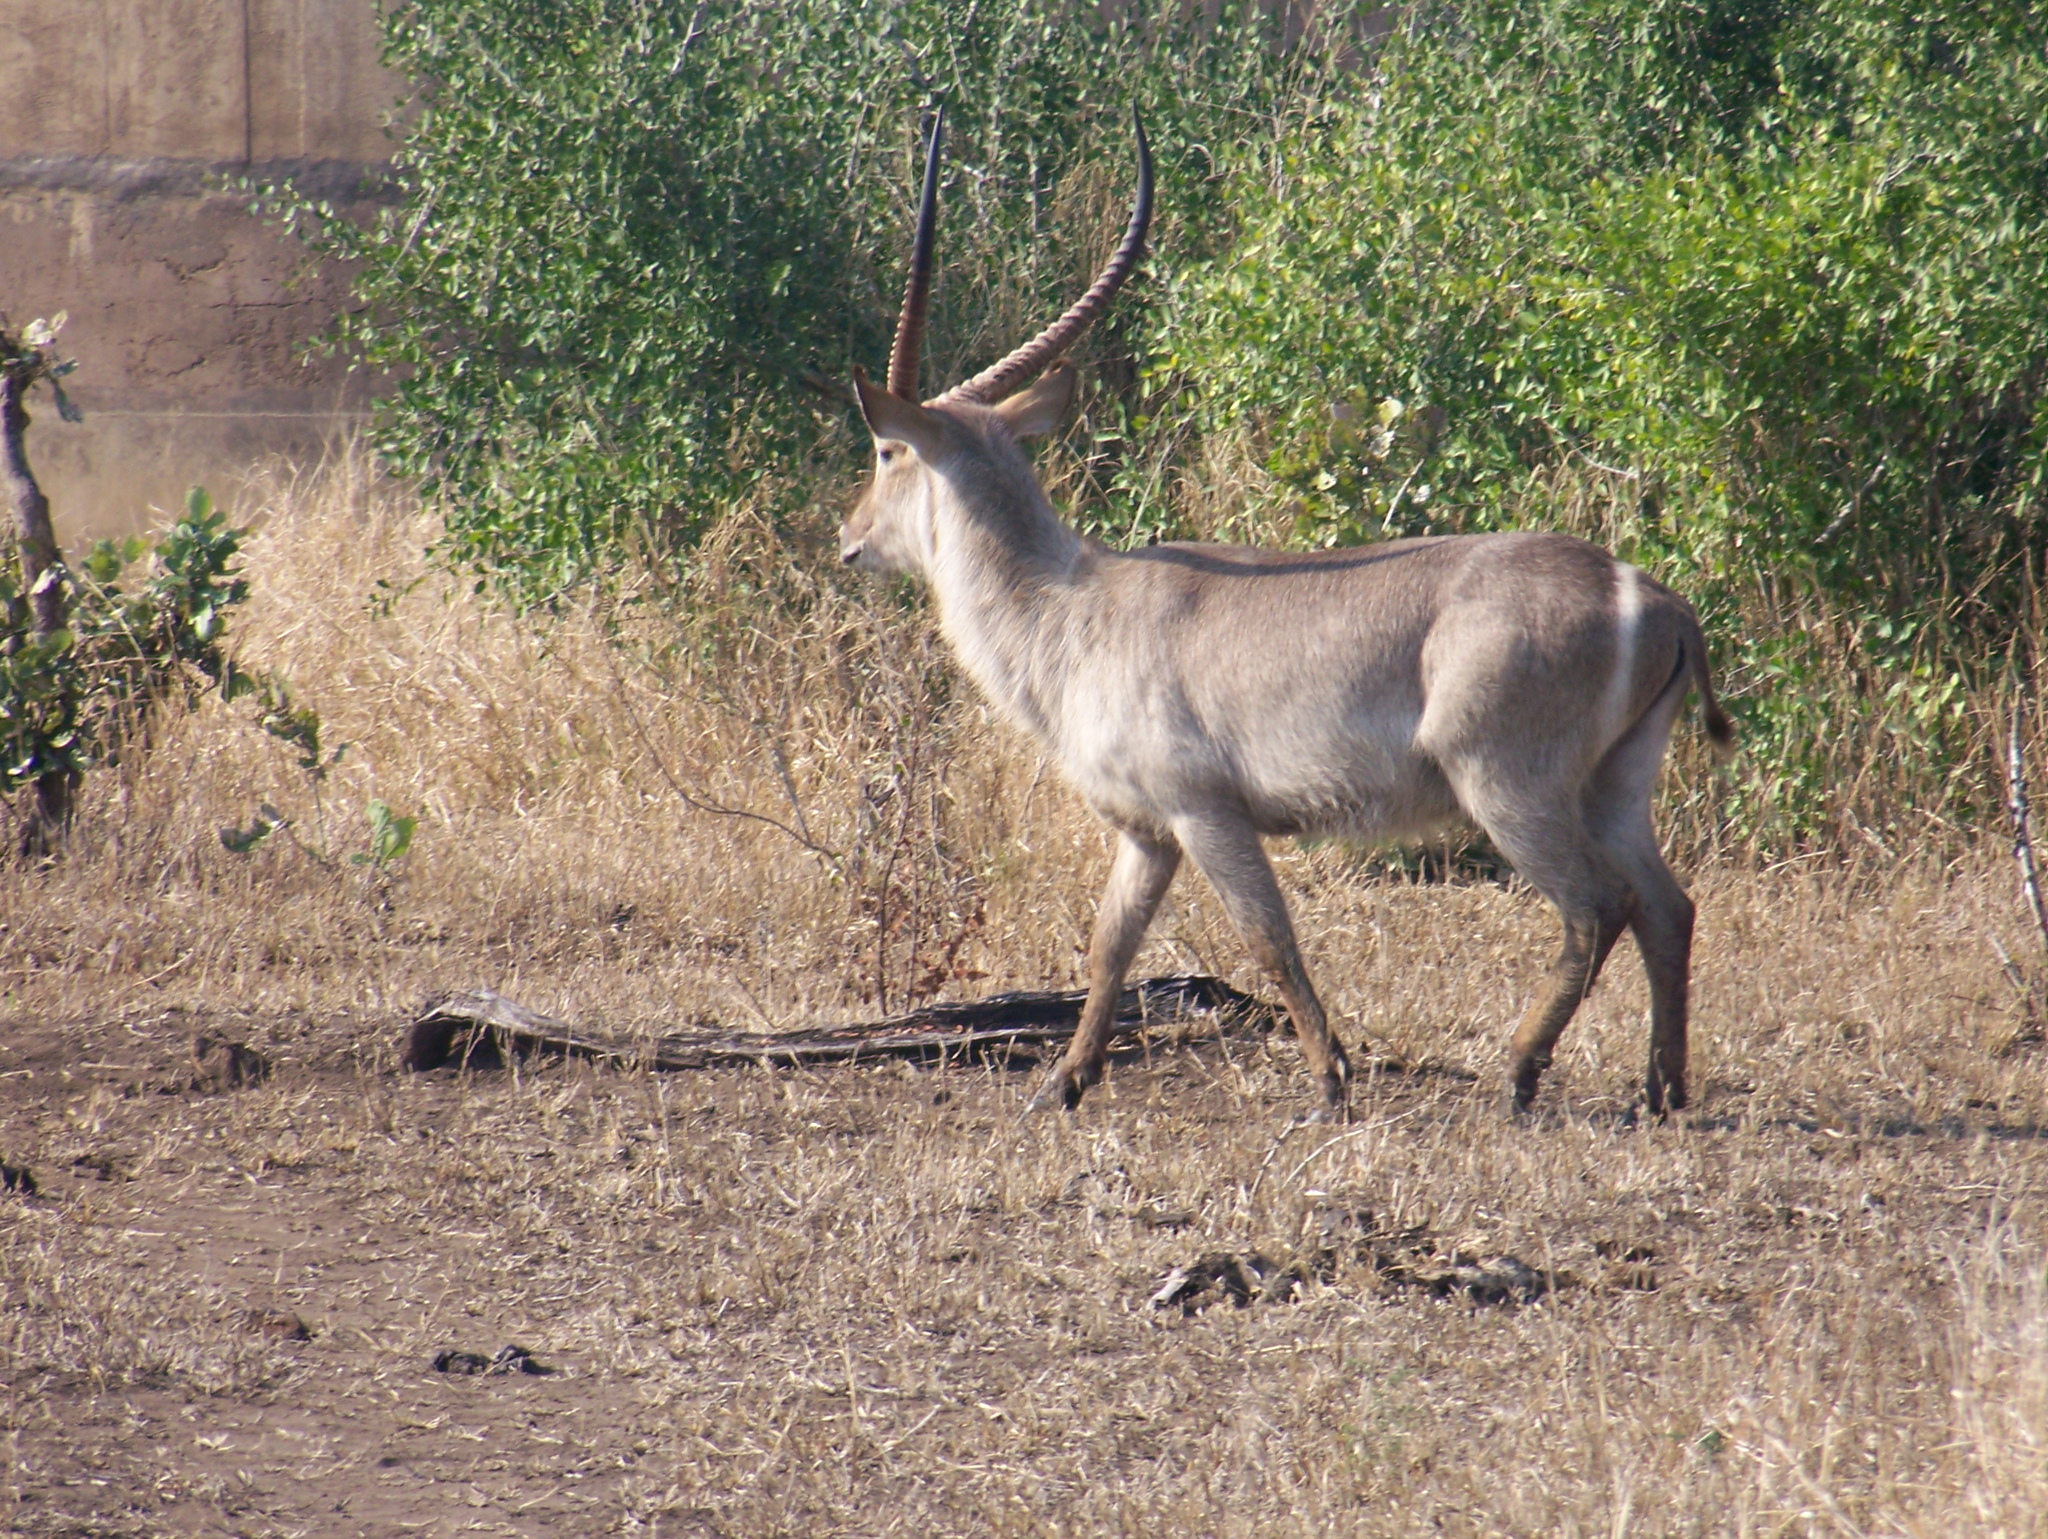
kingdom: Animalia
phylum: Chordata
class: Mammalia
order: Artiodactyla
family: Bovidae
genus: Kobus
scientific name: Kobus ellipsiprymnus
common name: Waterbuck
